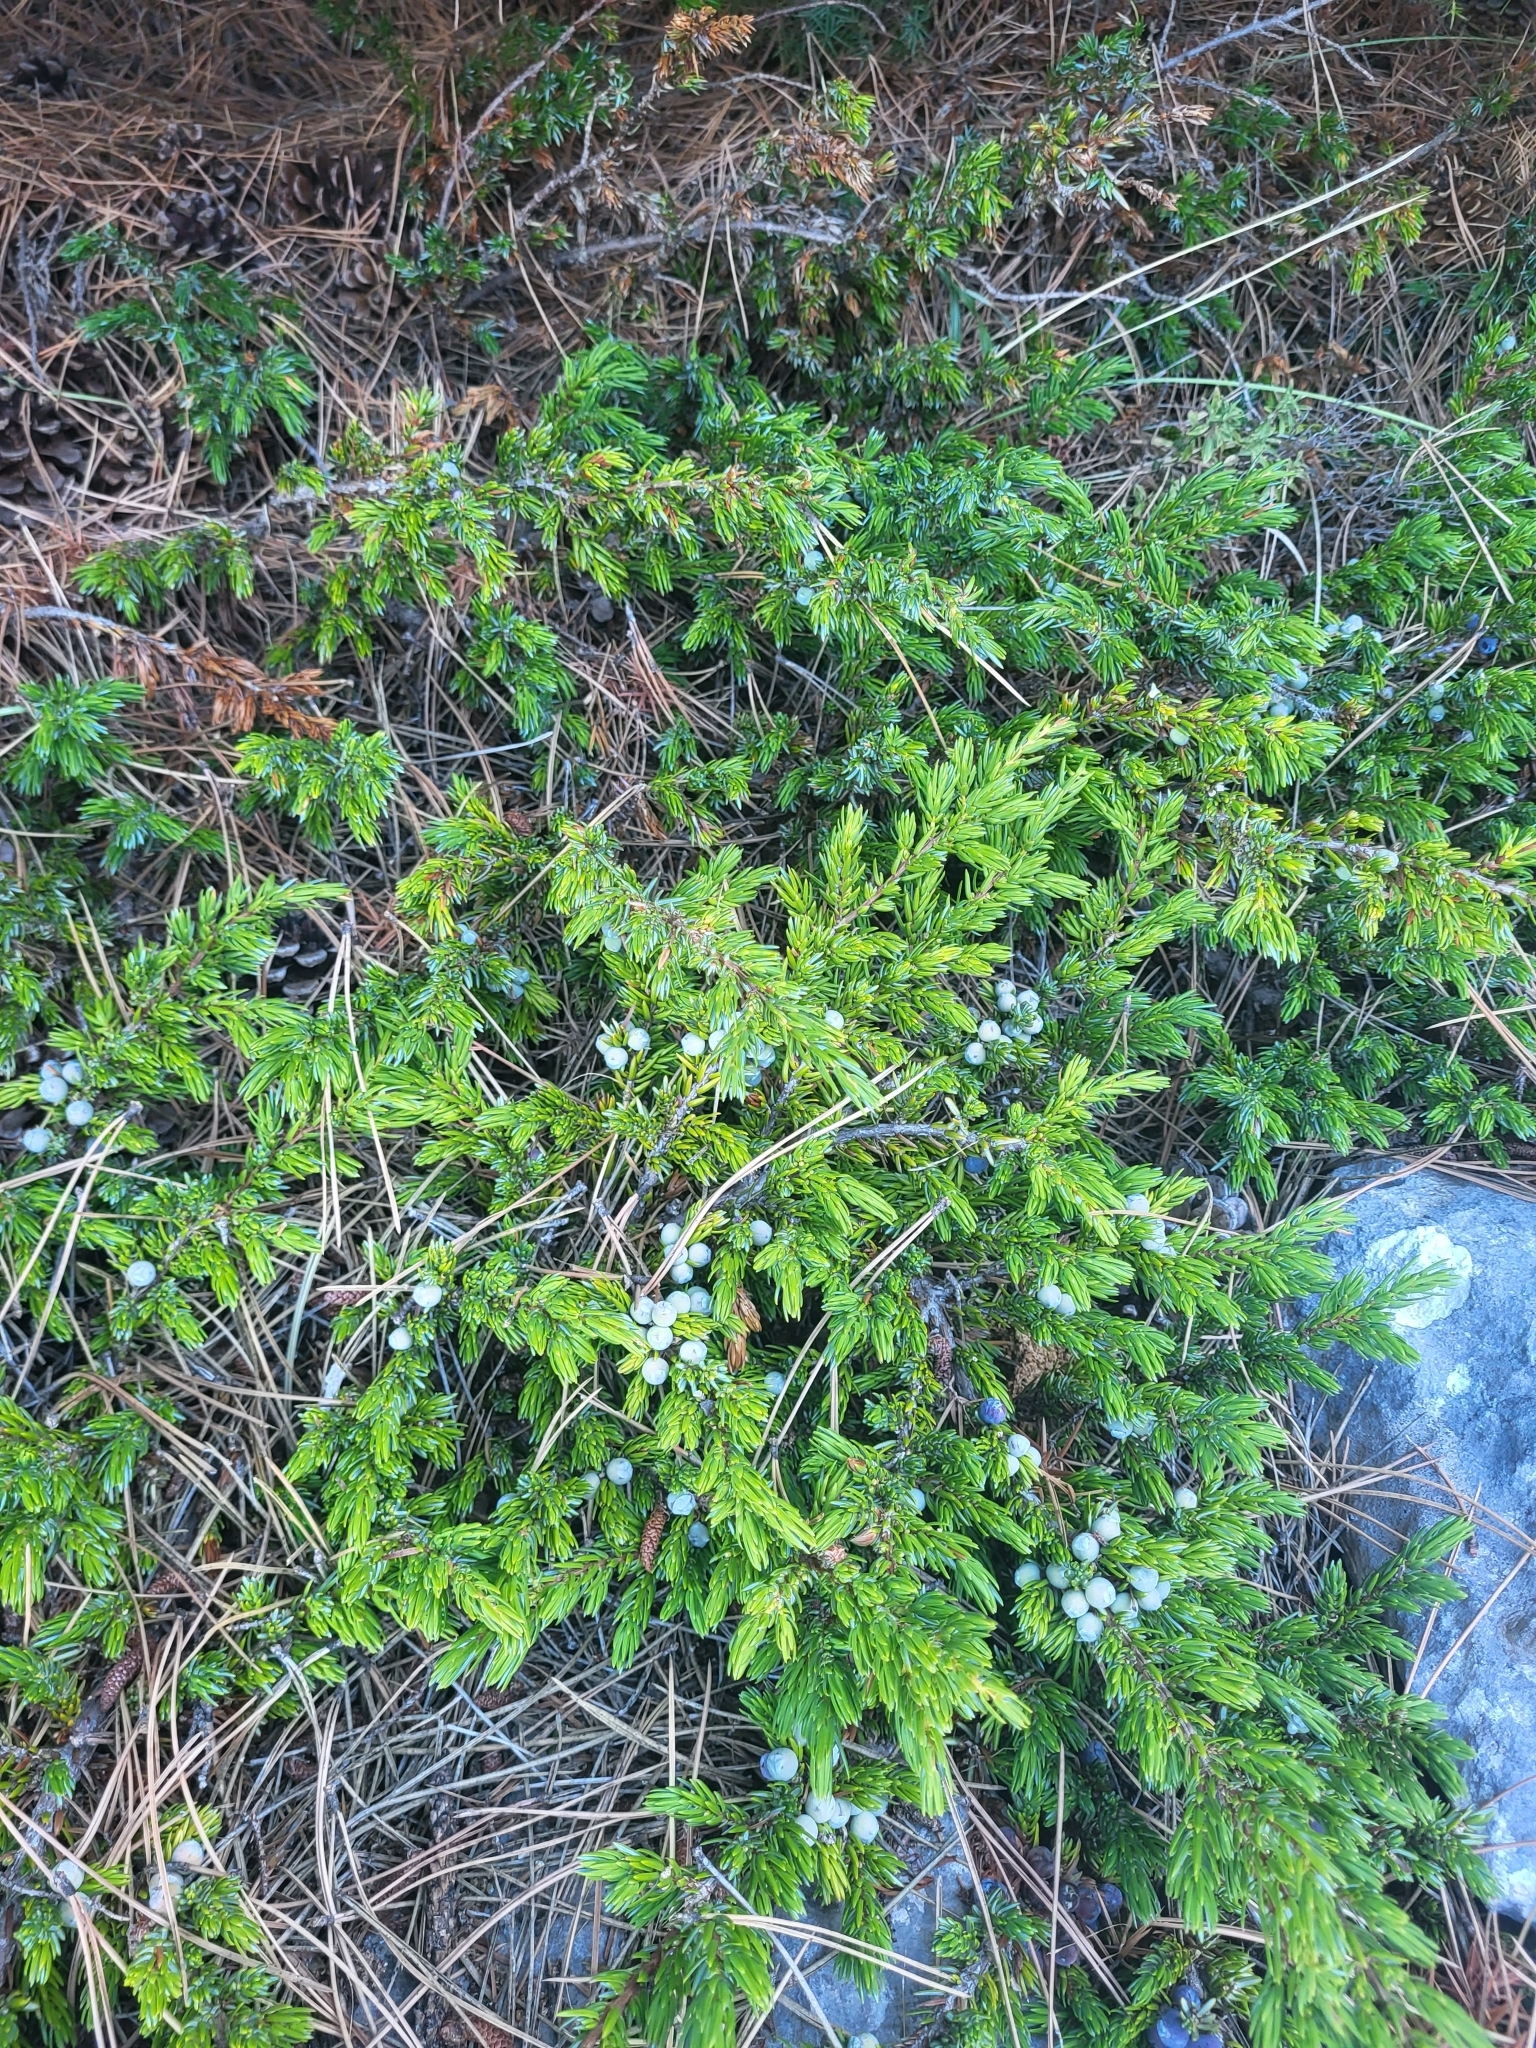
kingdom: Plantae
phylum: Tracheophyta
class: Pinopsida
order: Pinales
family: Cupressaceae
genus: Juniperus
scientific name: Juniperus communis
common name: Common juniper
